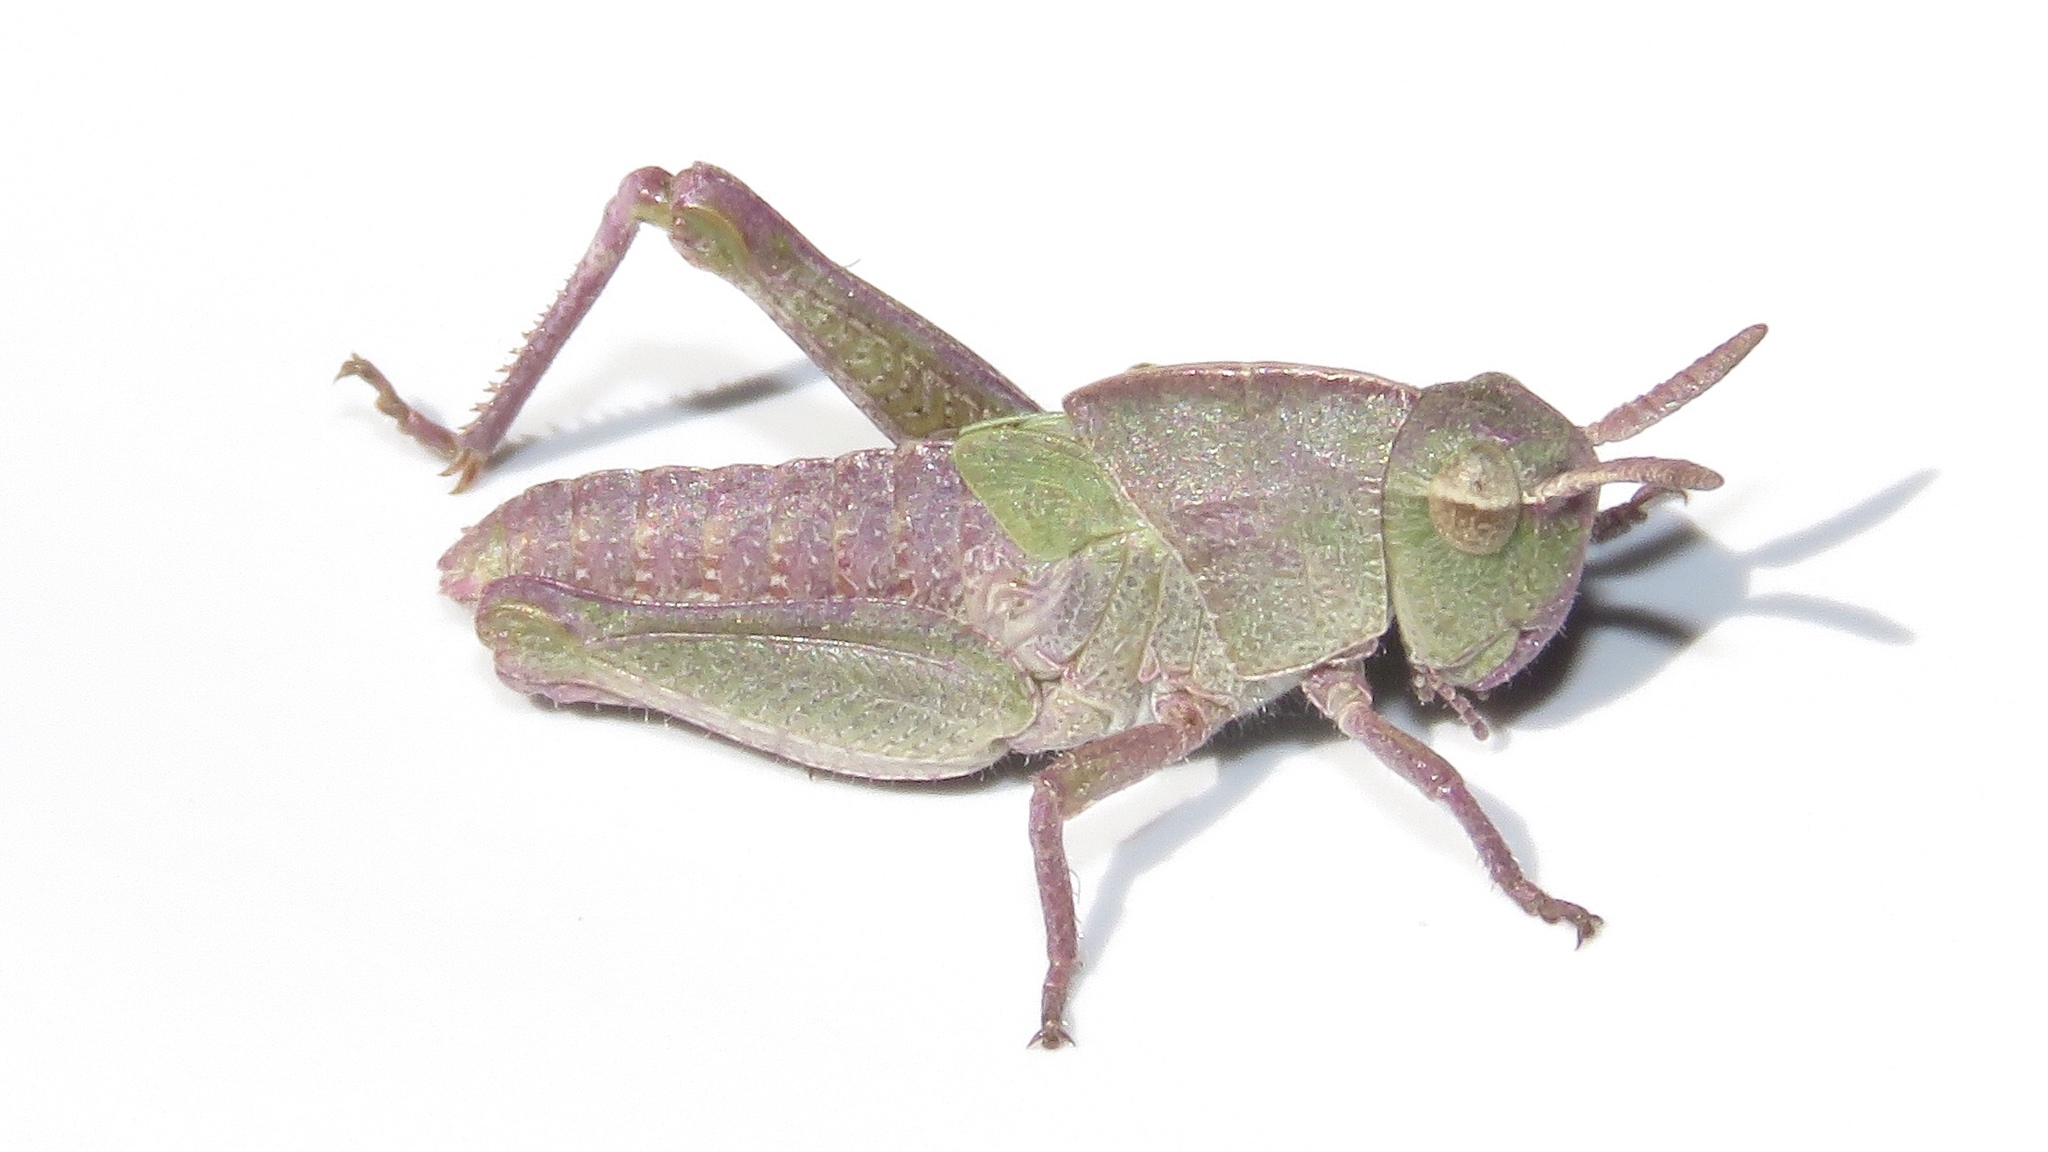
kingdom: Animalia
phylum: Arthropoda
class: Insecta
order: Orthoptera
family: Acrididae
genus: Chortophaga
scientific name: Chortophaga viridifasciata
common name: Green-striped grasshopper
